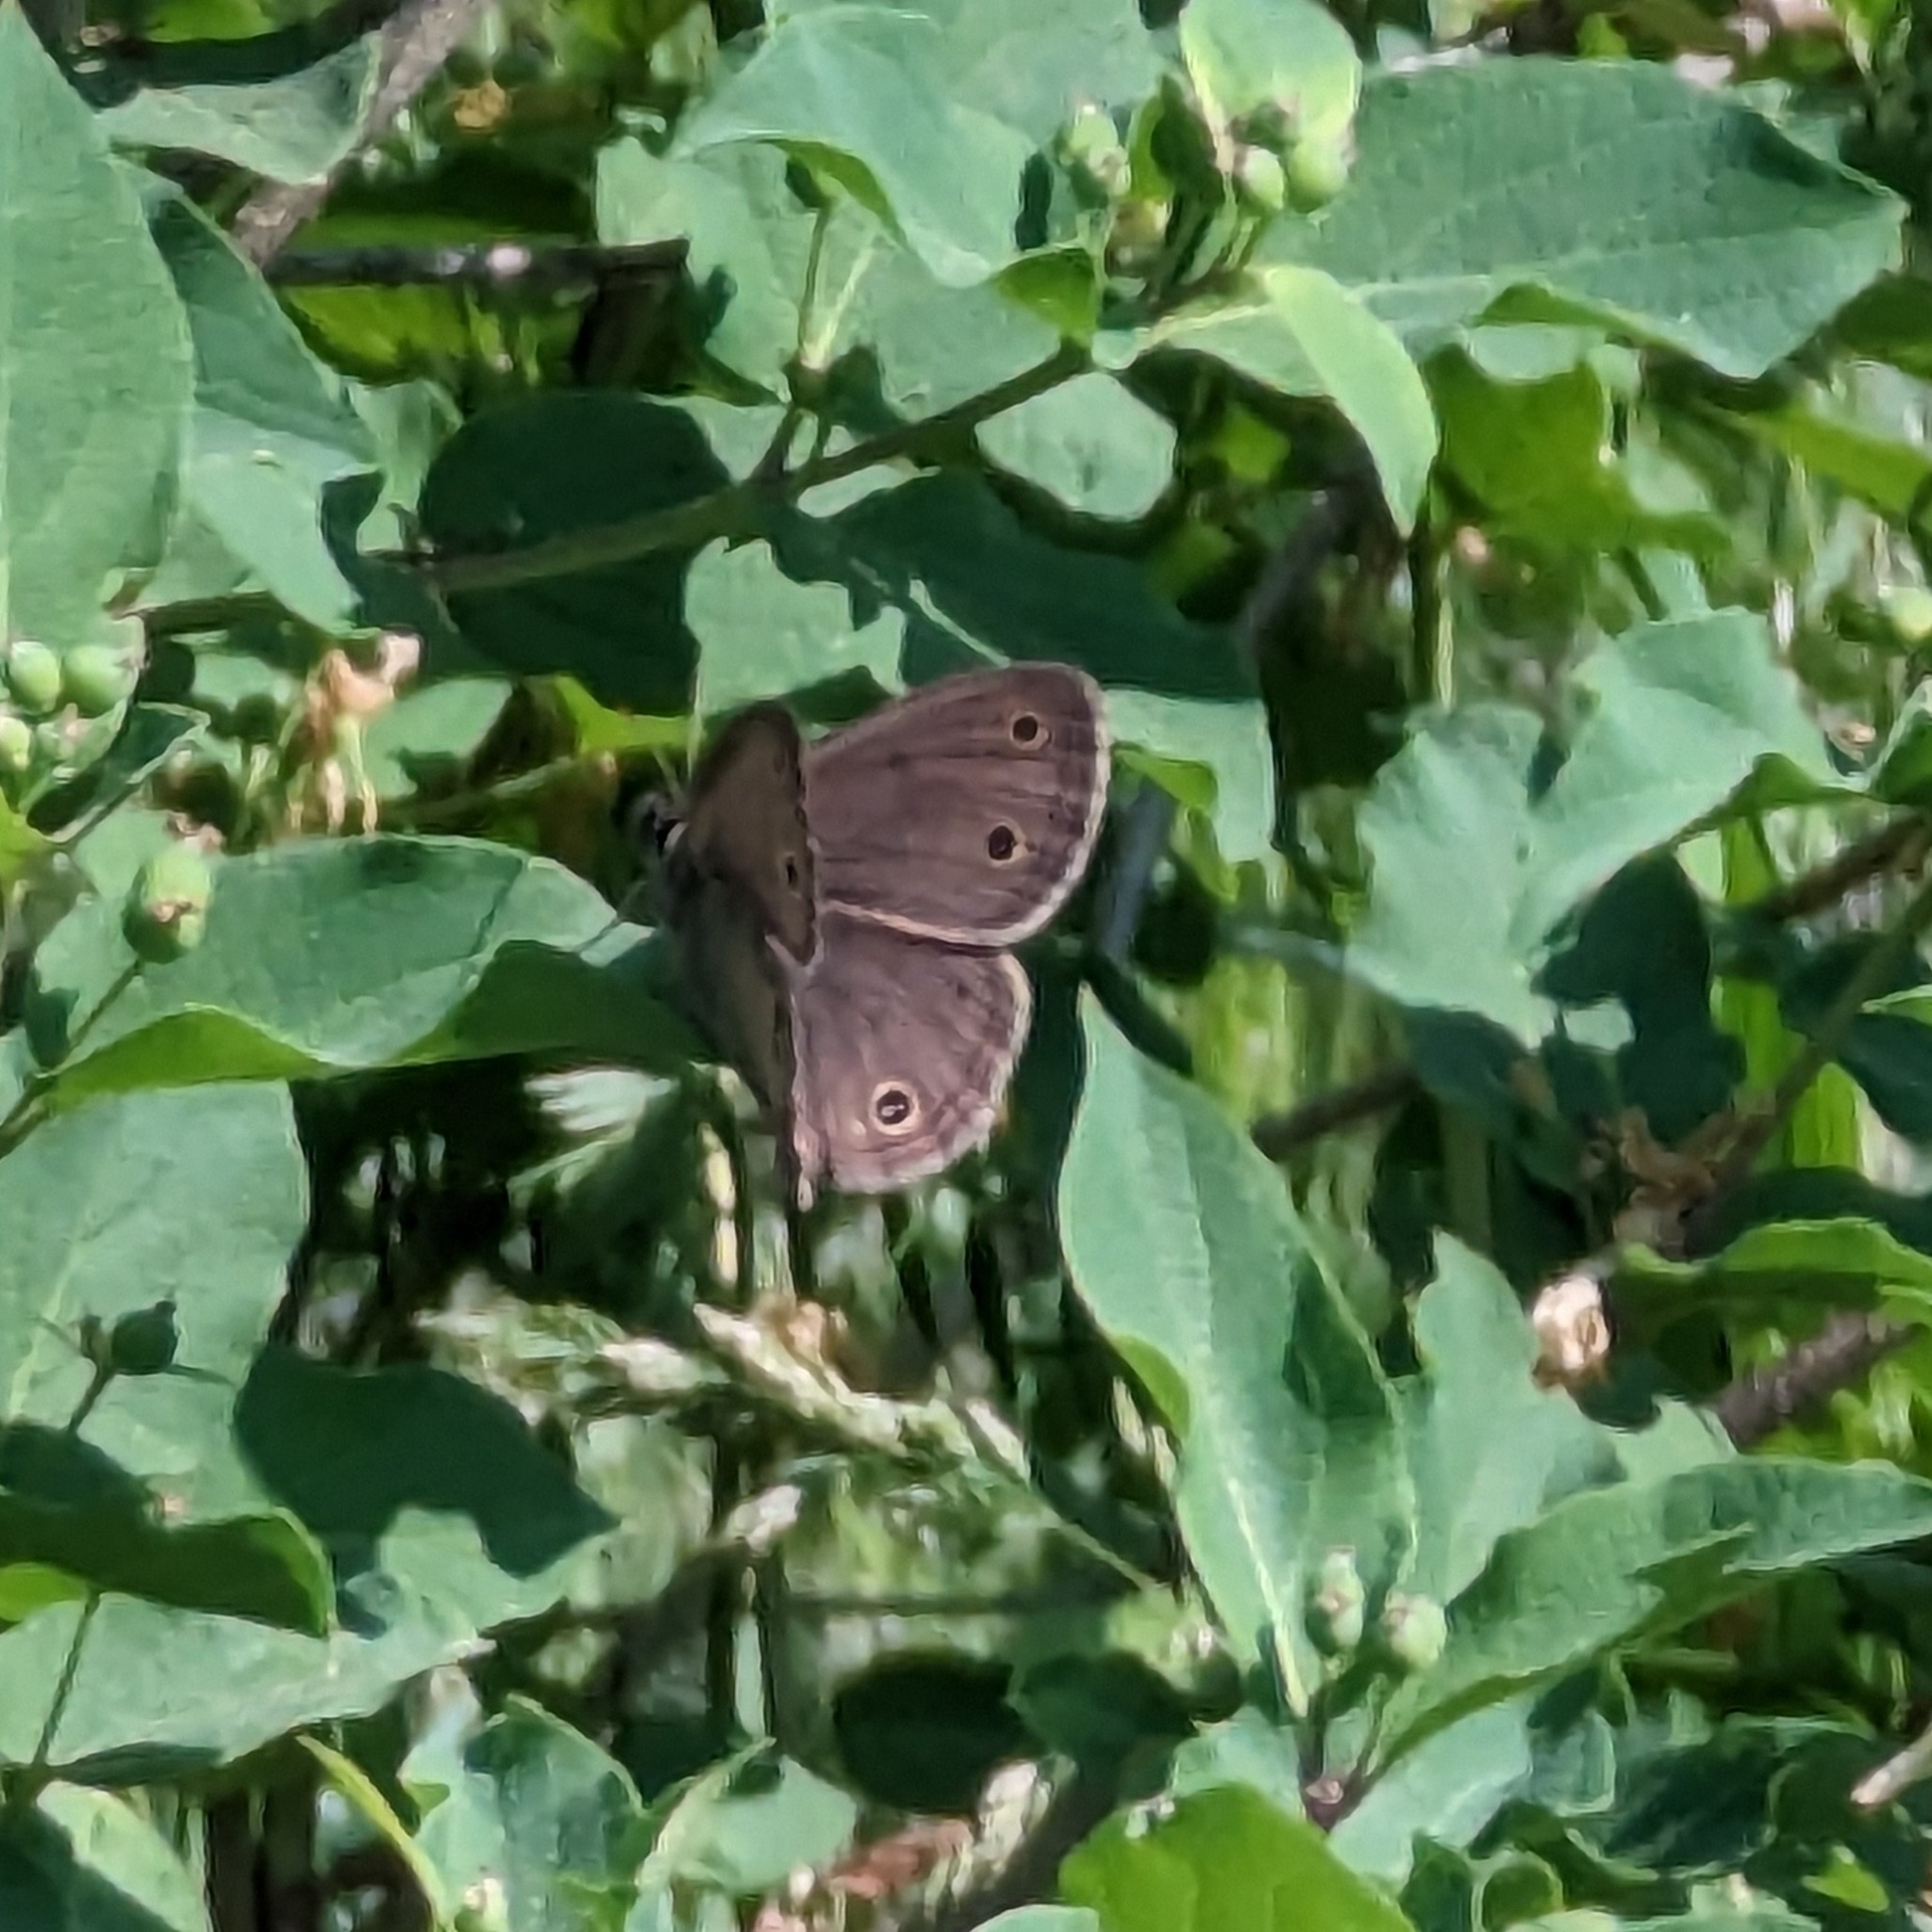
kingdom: Animalia
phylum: Arthropoda
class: Insecta
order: Lepidoptera
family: Nymphalidae
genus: Euptychia
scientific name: Euptychia cymela
